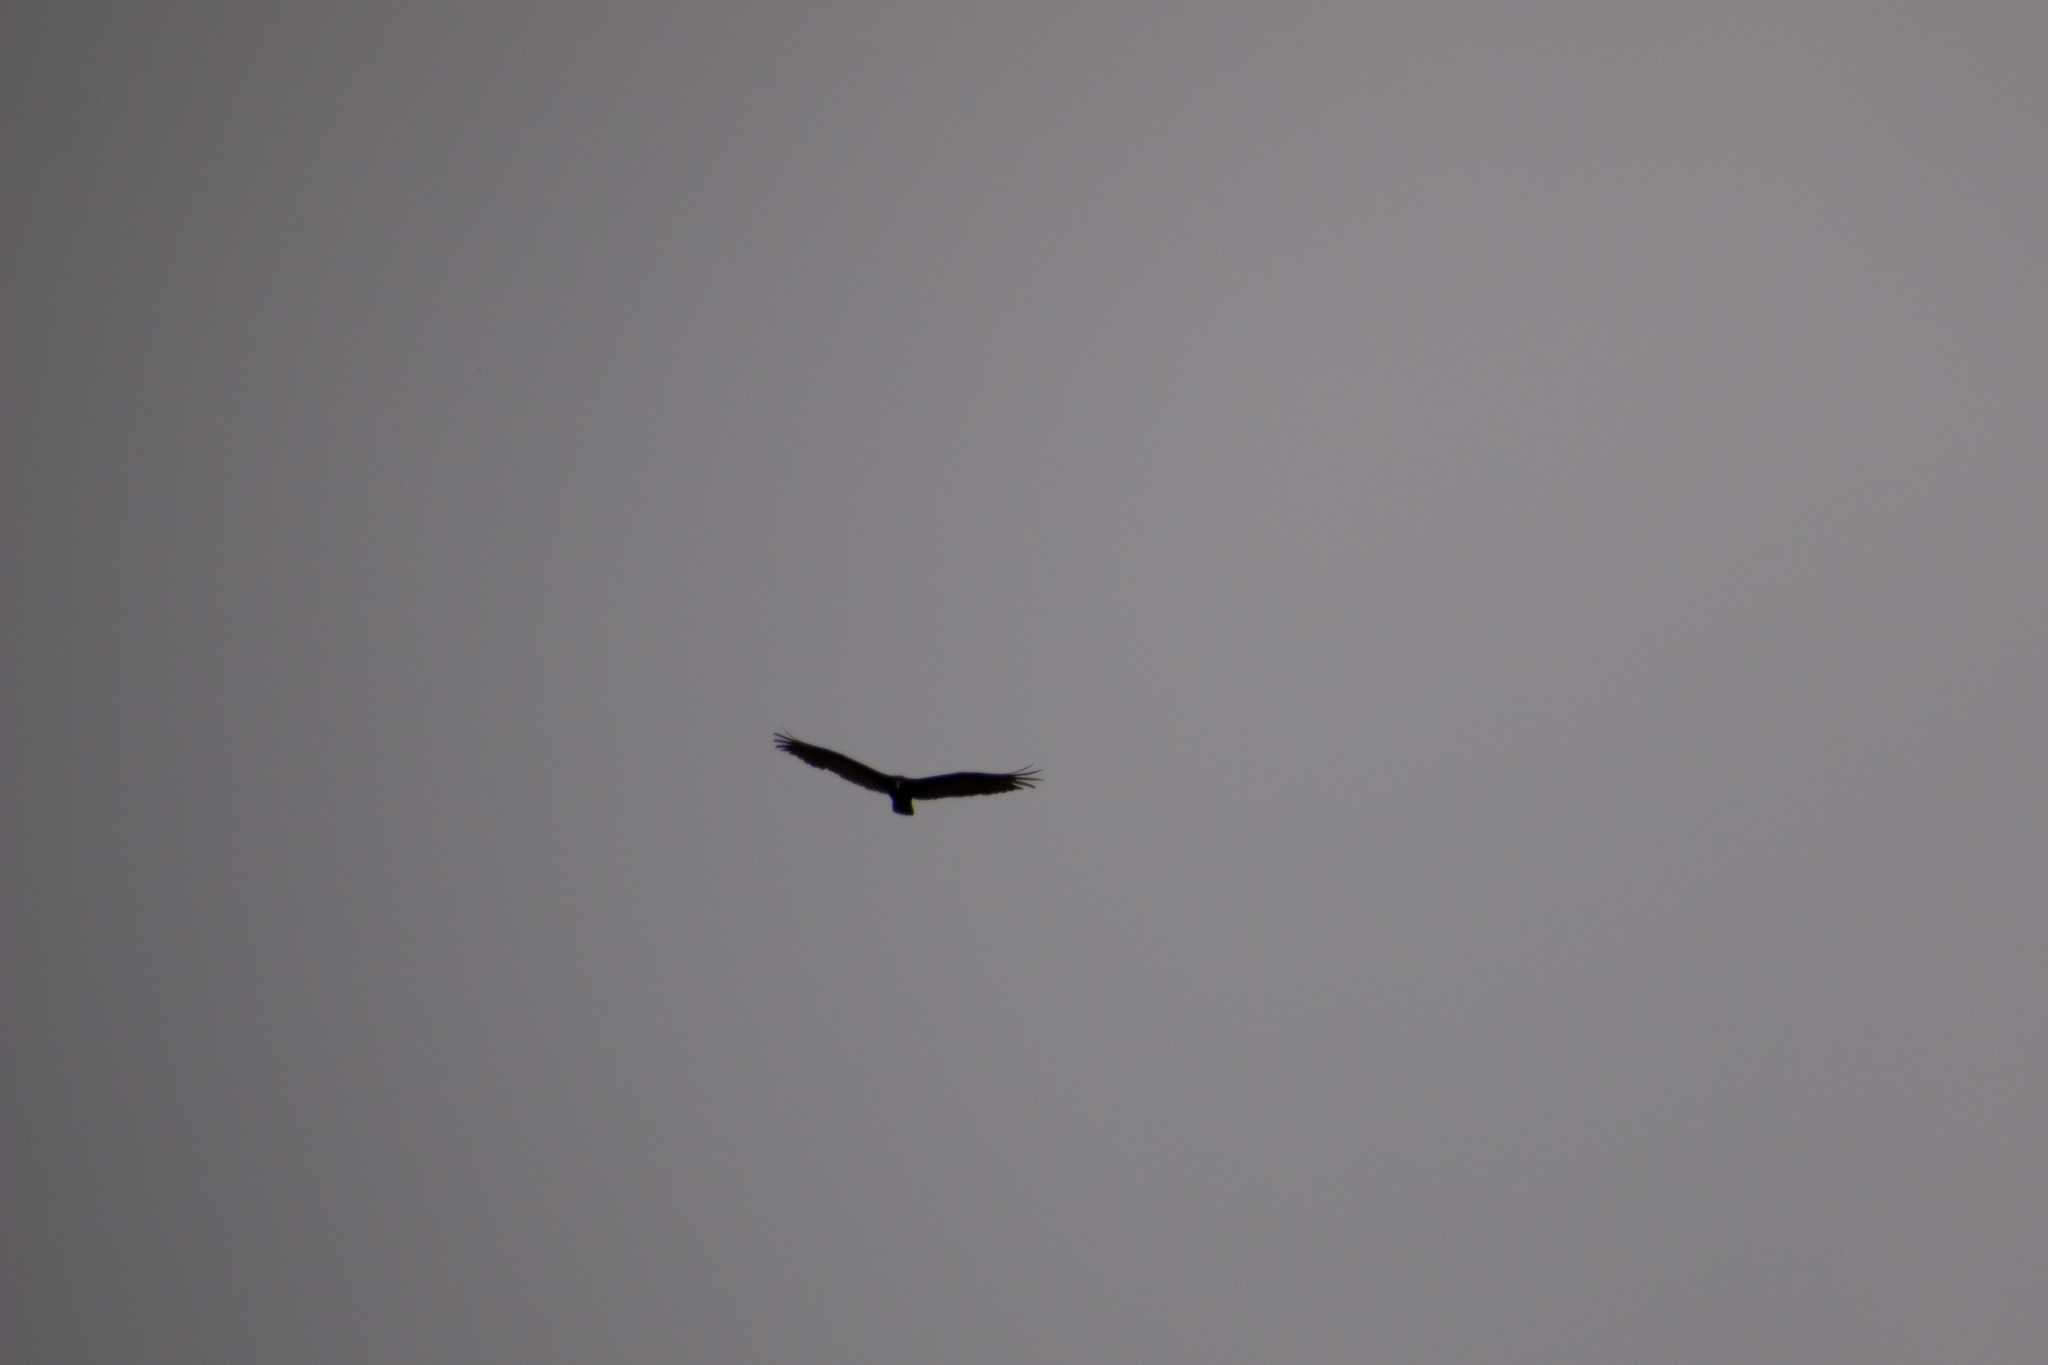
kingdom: Animalia
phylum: Chordata
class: Aves
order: Accipitriformes
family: Cathartidae
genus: Cathartes
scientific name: Cathartes aura
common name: Turkey vulture
